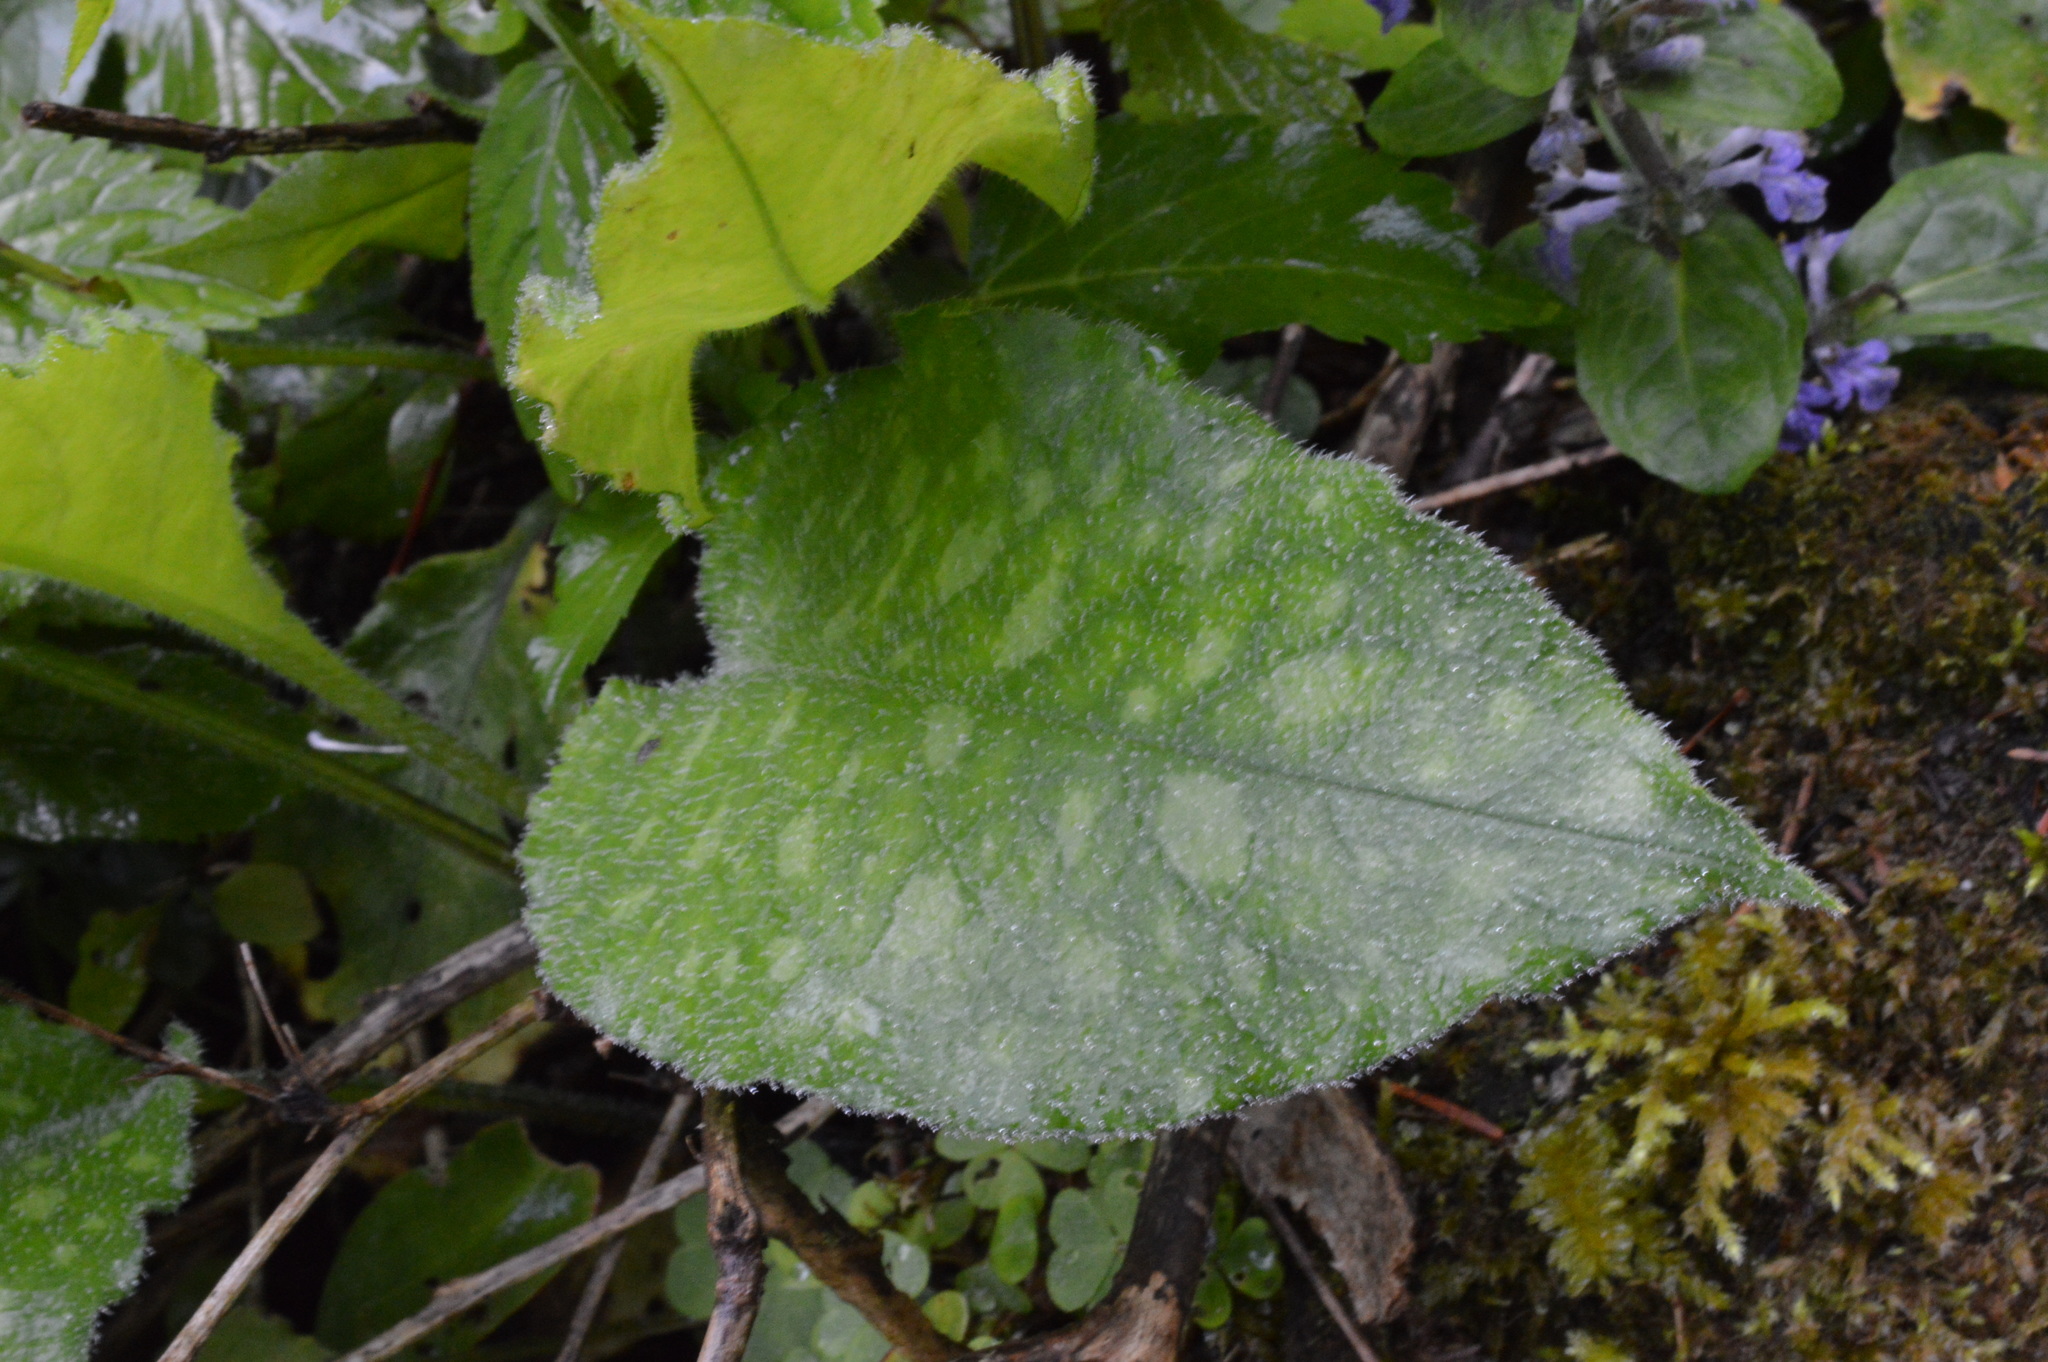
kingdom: Plantae
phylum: Tracheophyta
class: Magnoliopsida
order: Boraginales
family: Boraginaceae
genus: Pulmonaria
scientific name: Pulmonaria officinalis
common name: Lungwort
